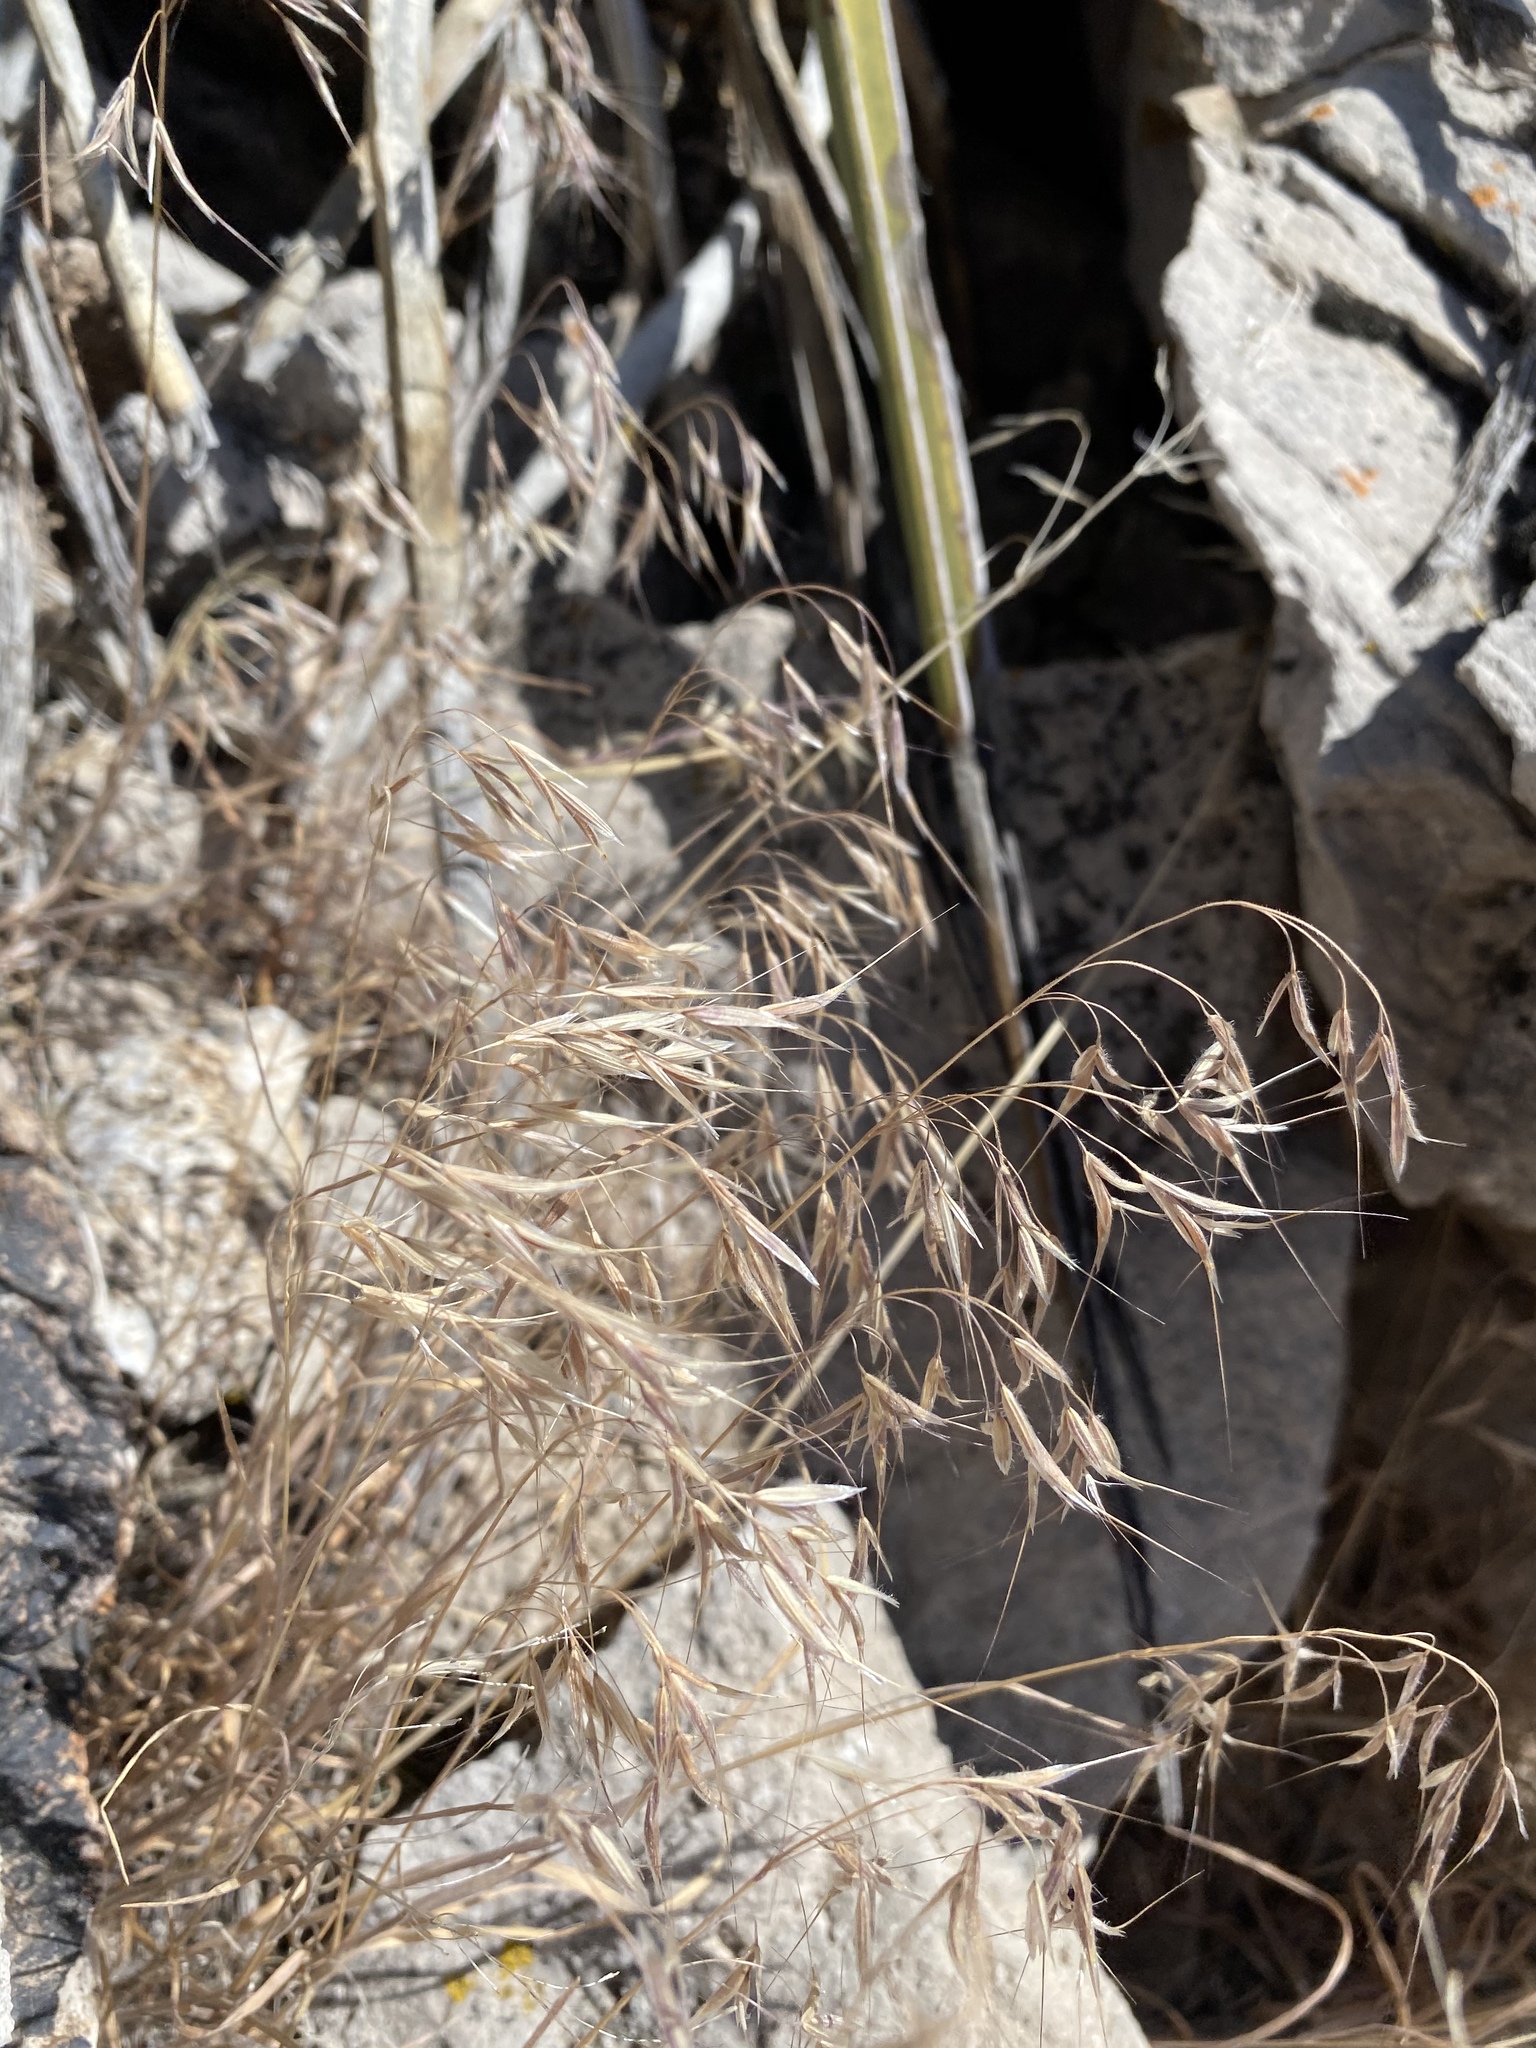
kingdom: Plantae
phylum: Tracheophyta
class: Liliopsida
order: Poales
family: Poaceae
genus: Bromus
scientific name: Bromus tectorum
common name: Cheatgrass
